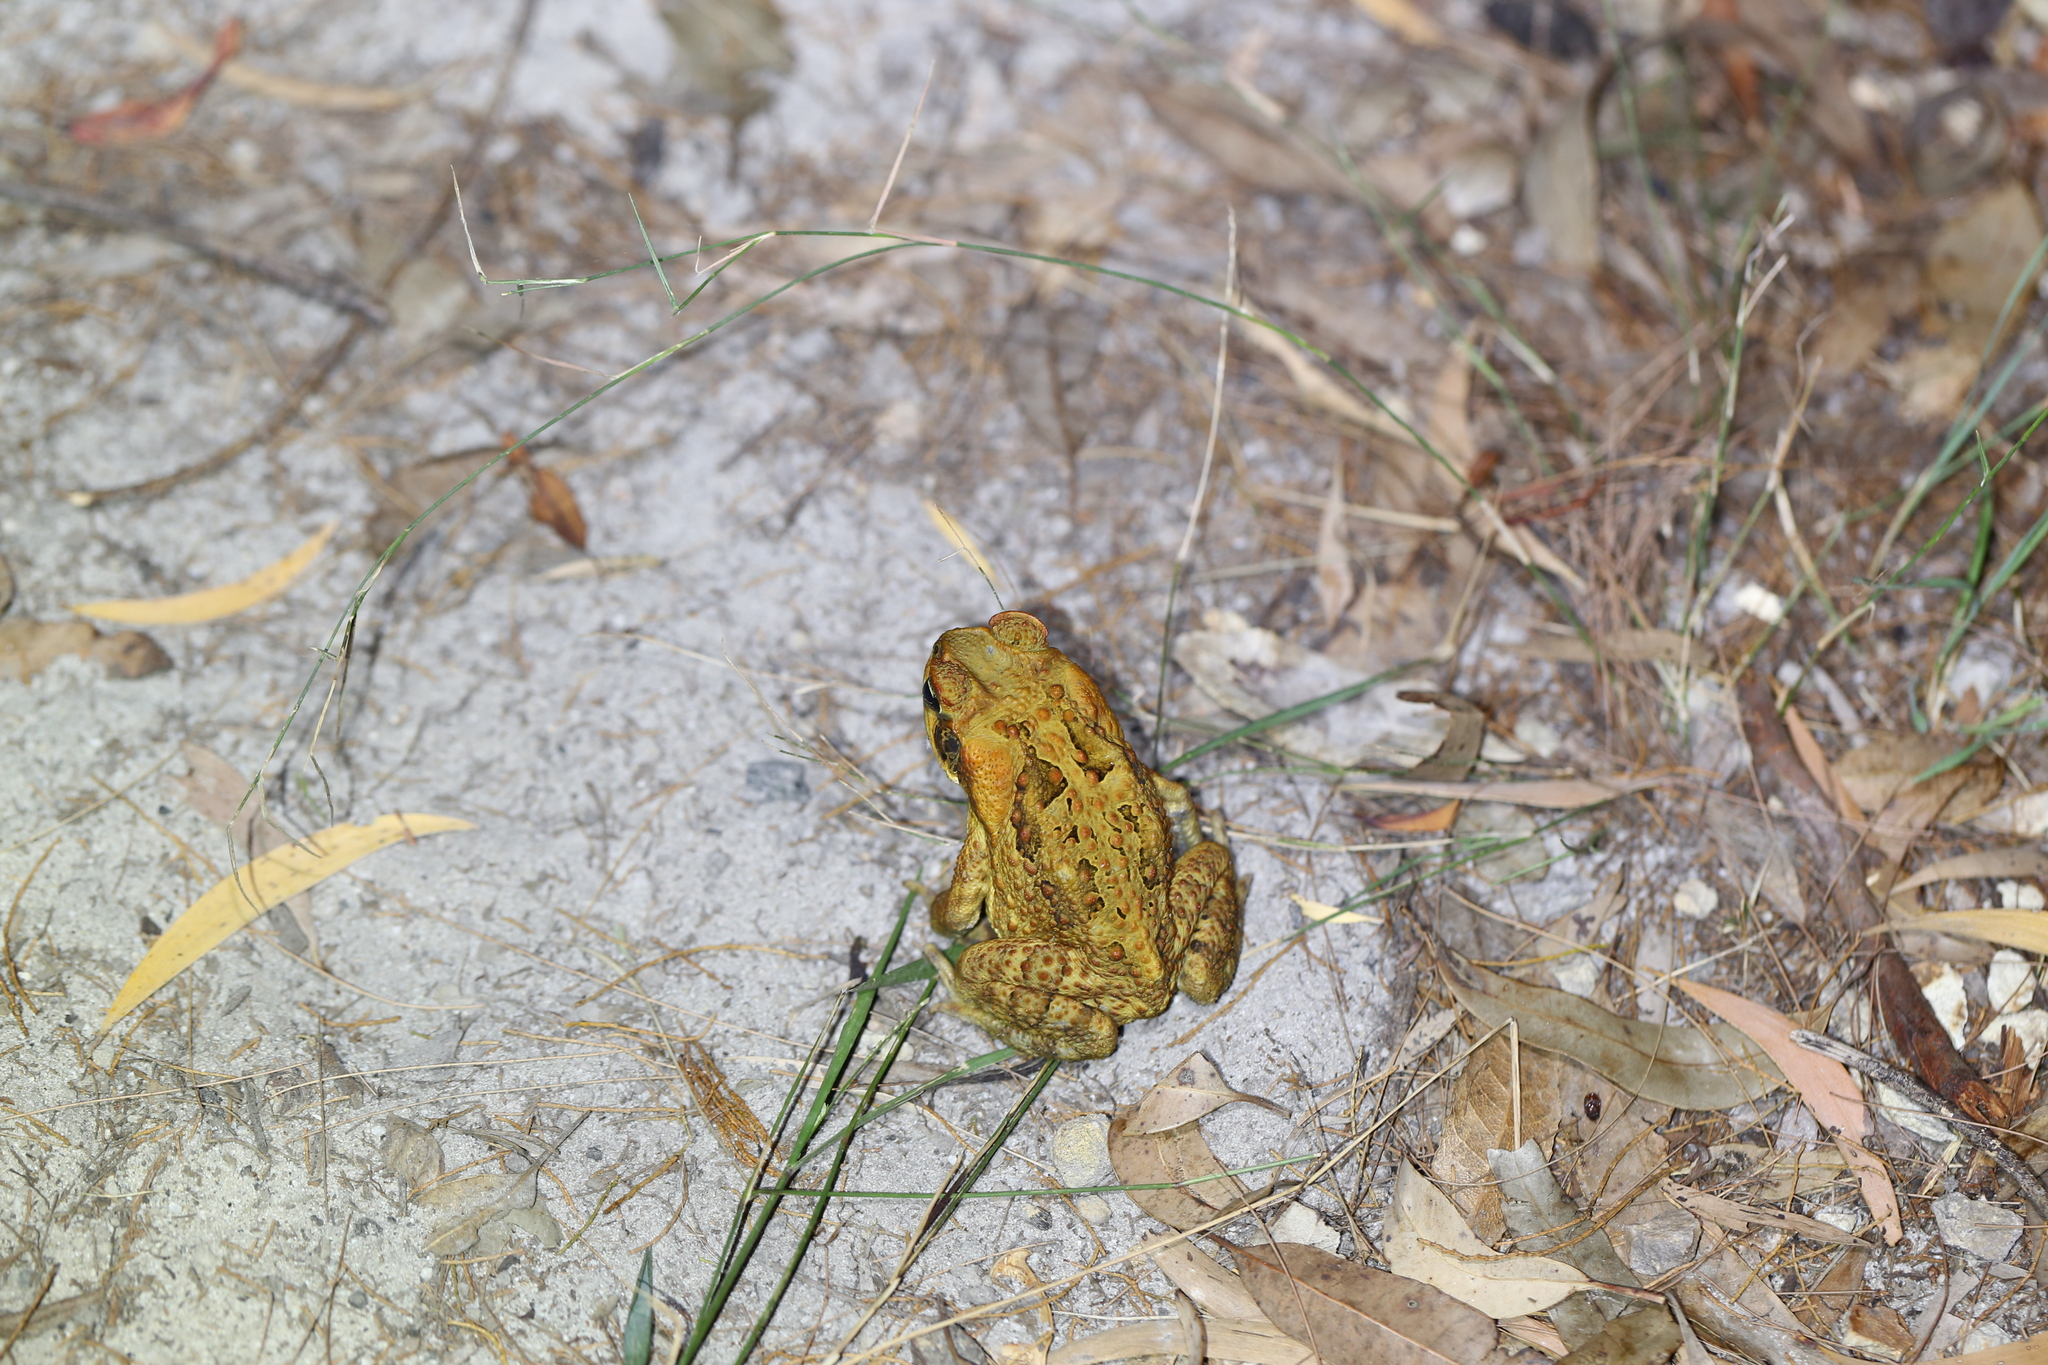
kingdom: Animalia
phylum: Chordata
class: Amphibia
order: Anura
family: Bufonidae
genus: Rhinella
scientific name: Rhinella marina
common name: Cane toad
